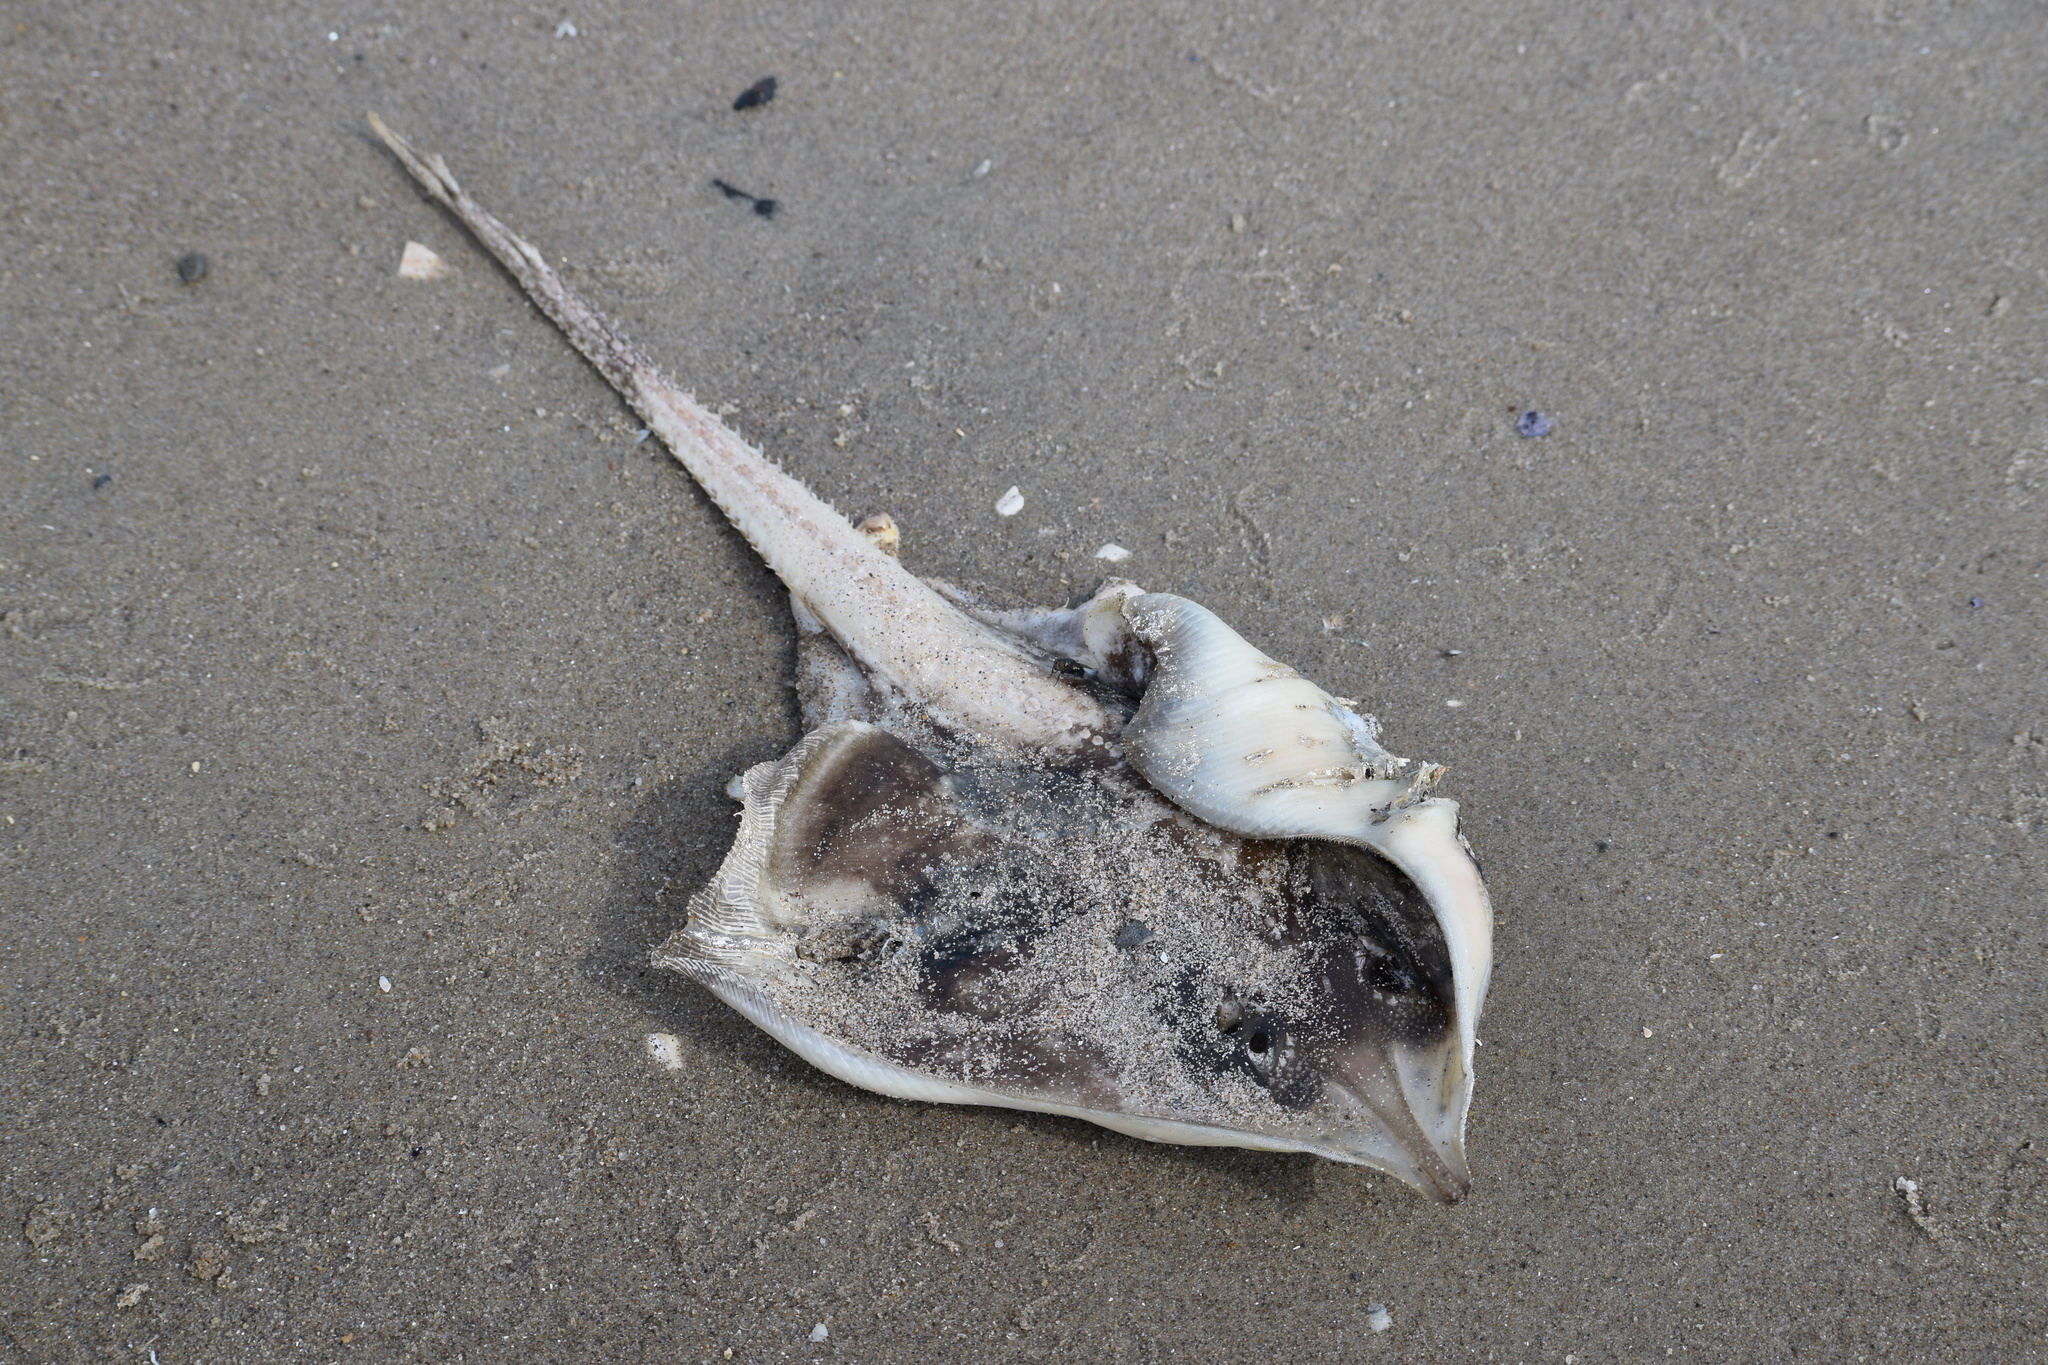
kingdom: Animalia
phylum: Chordata
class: Elasmobranchii
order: Rajiformes
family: Rajidae
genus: Raja
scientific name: Raja eglanteria
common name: Clearnose skate
